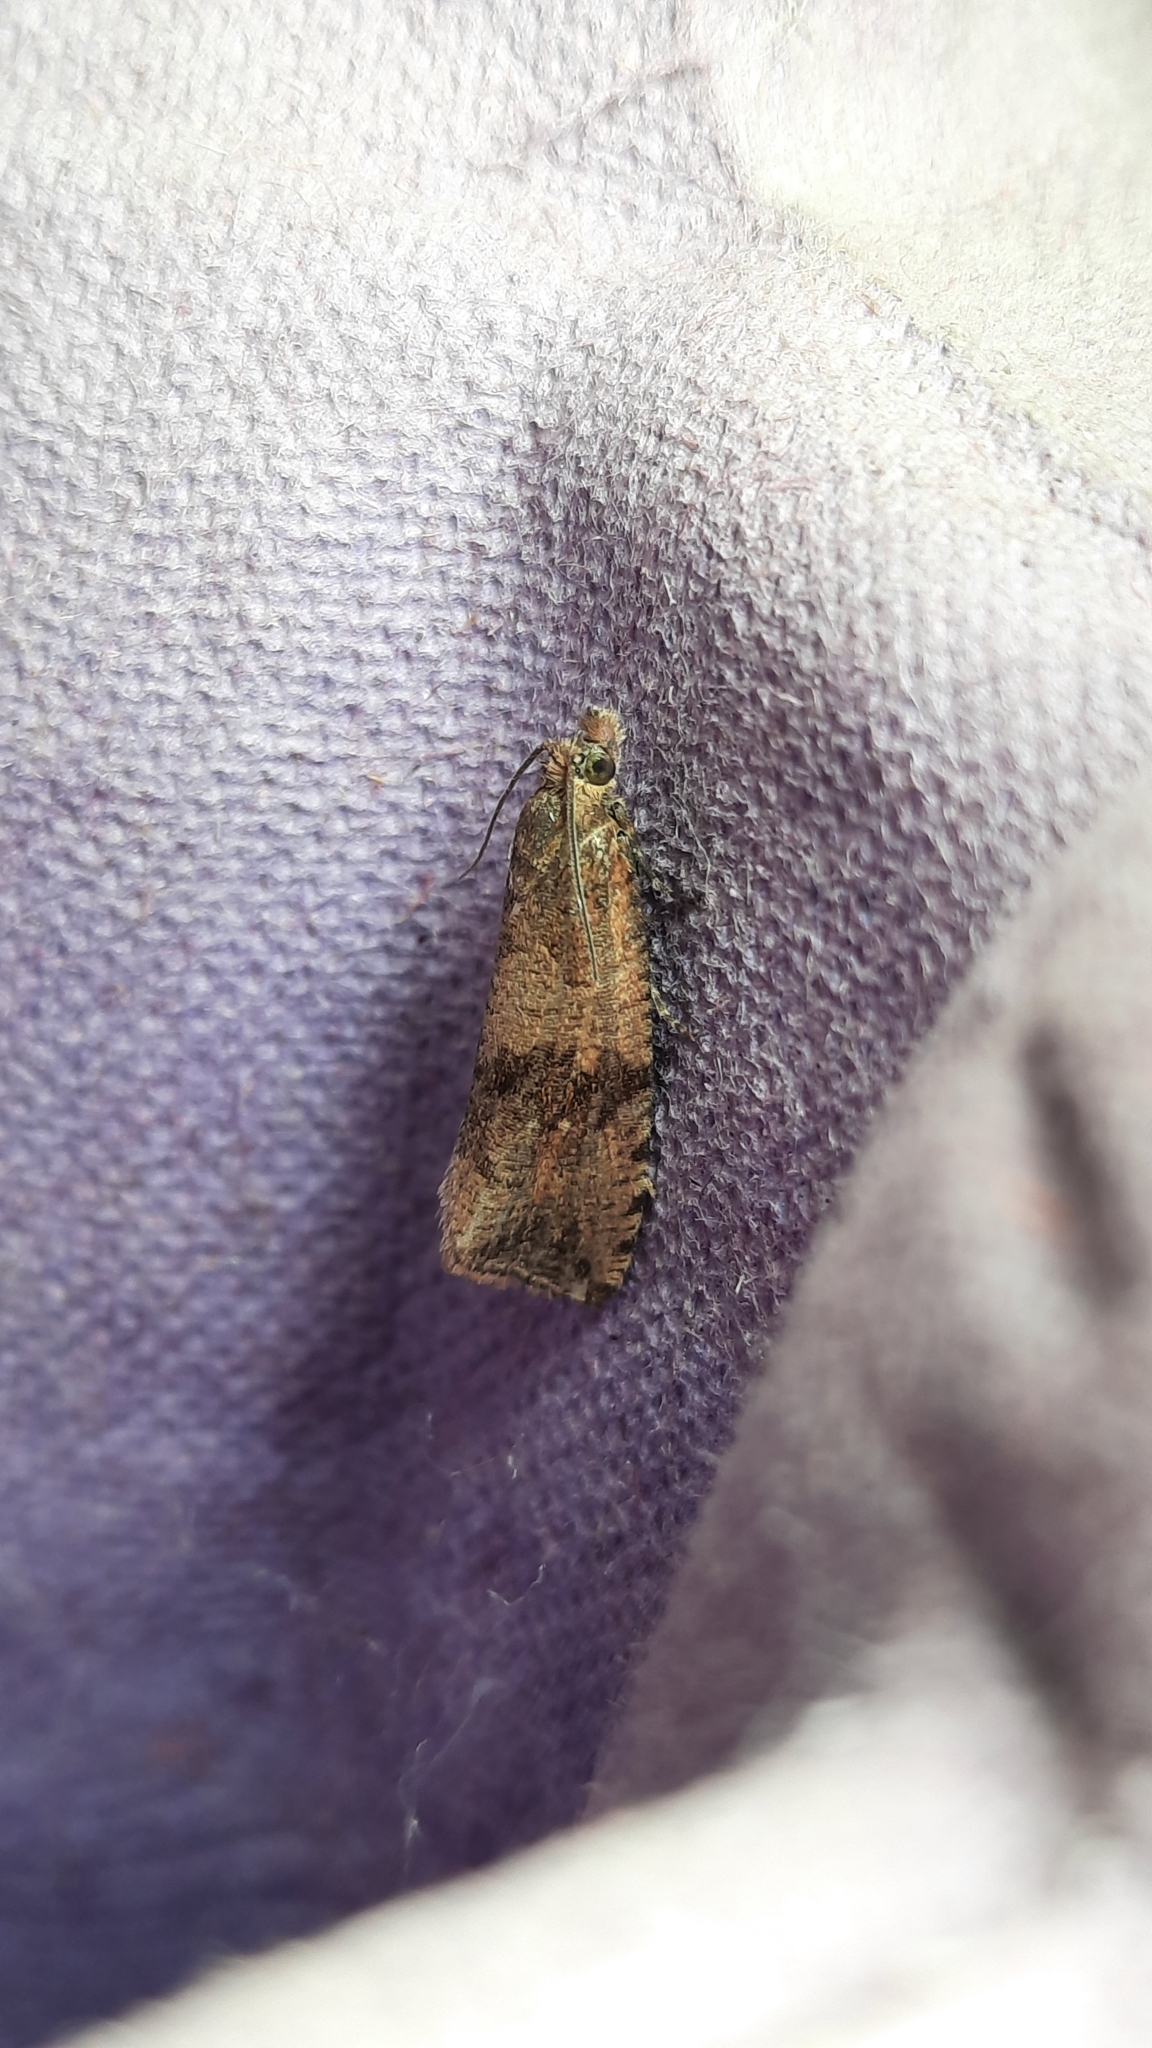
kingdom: Animalia
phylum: Arthropoda
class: Insecta
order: Lepidoptera
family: Tortricidae
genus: Celypha
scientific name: Celypha striana
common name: Barred marble
